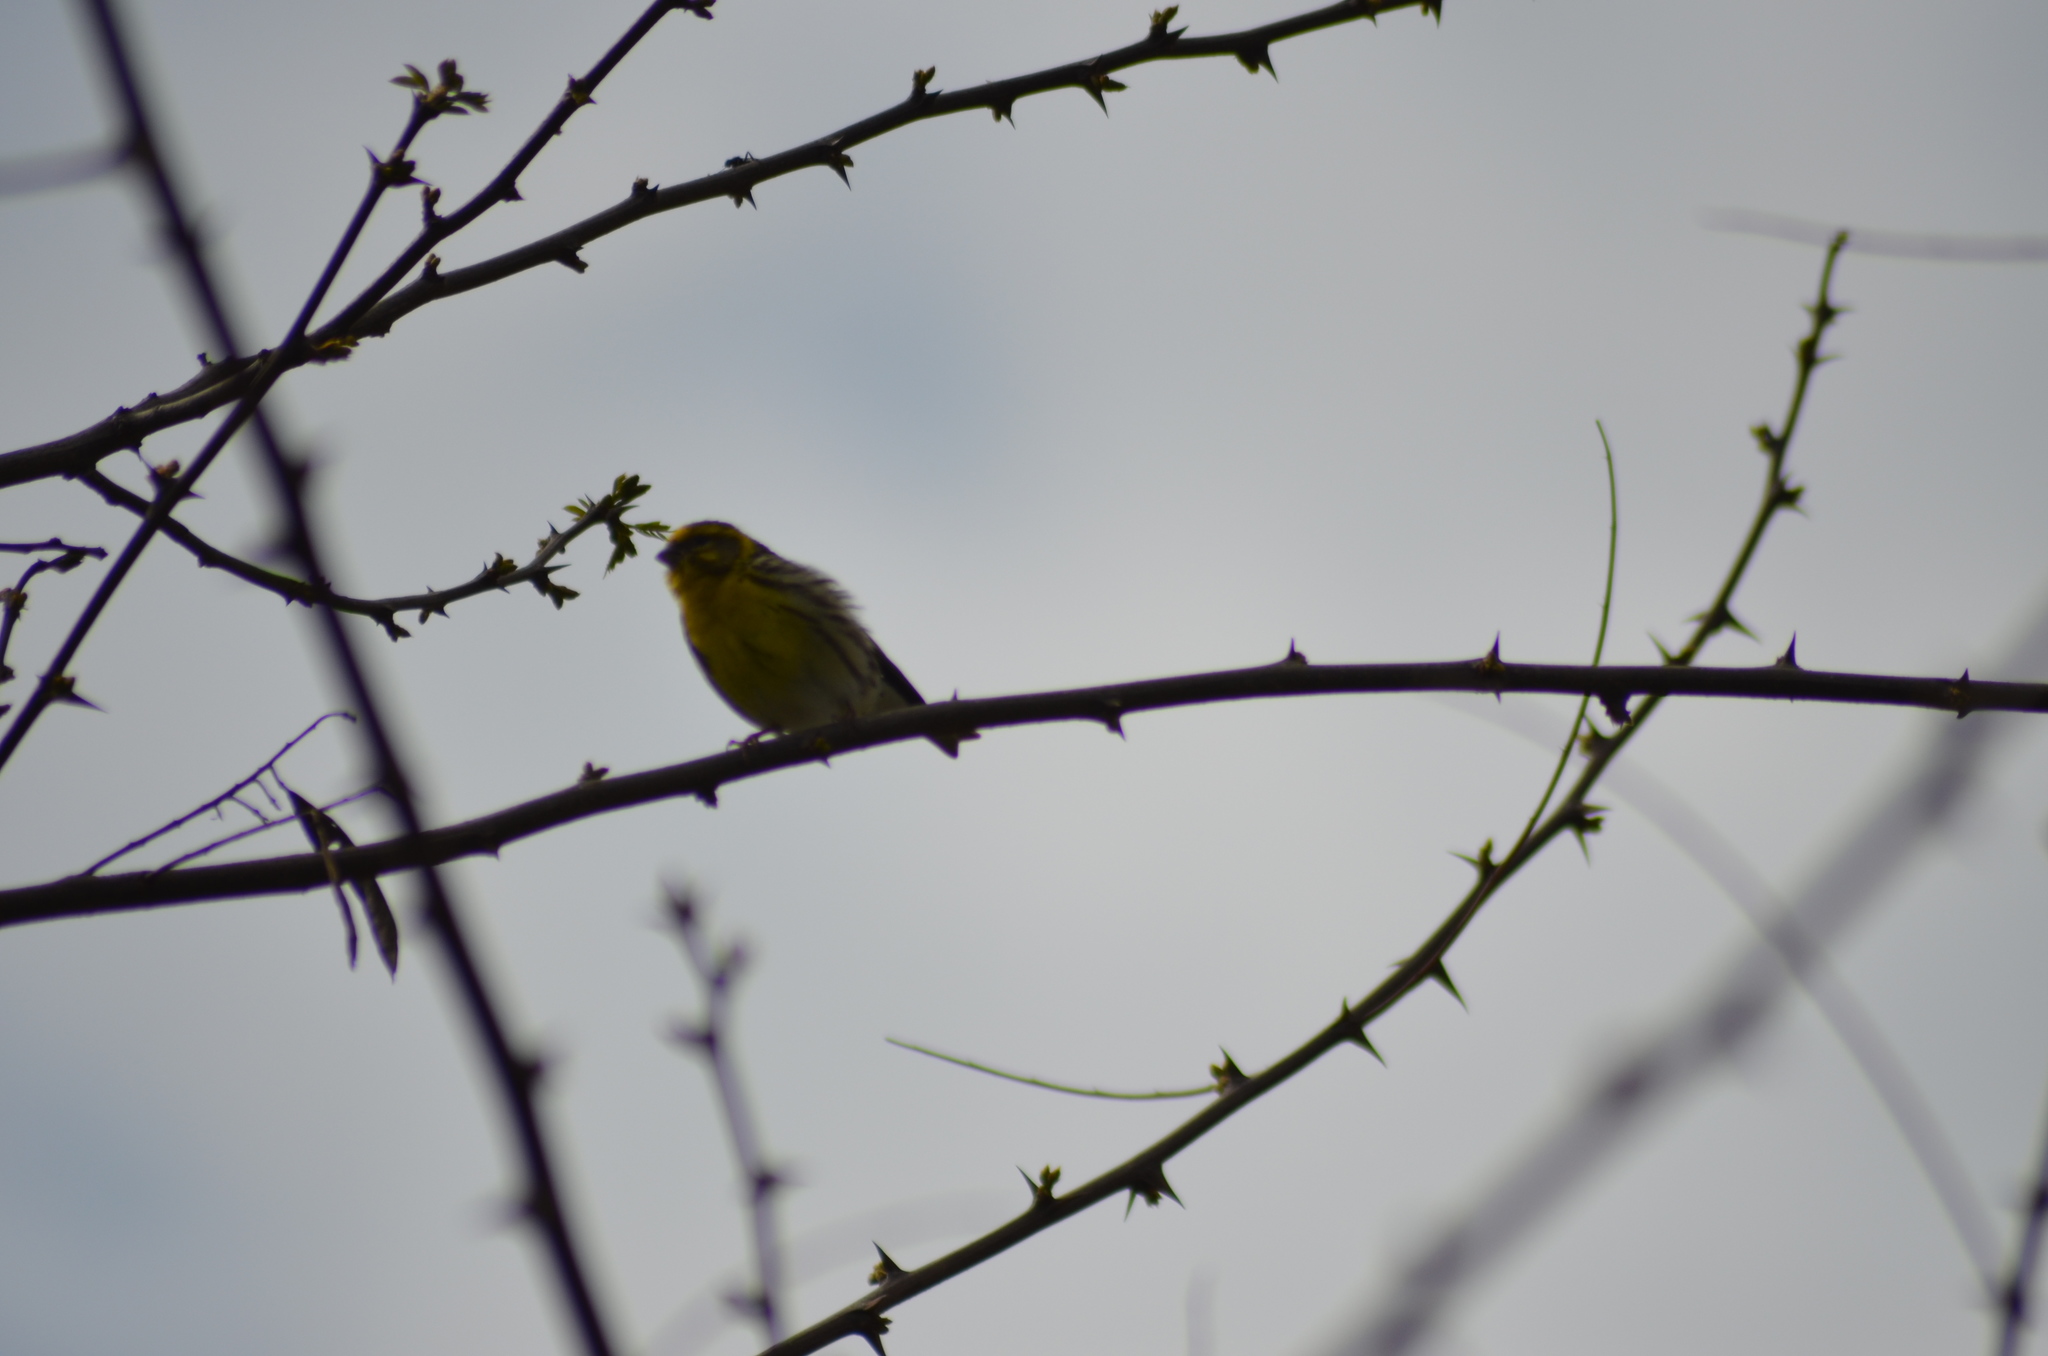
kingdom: Animalia
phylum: Chordata
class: Aves
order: Passeriformes
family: Fringillidae
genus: Serinus
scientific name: Serinus serinus
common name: European serin
